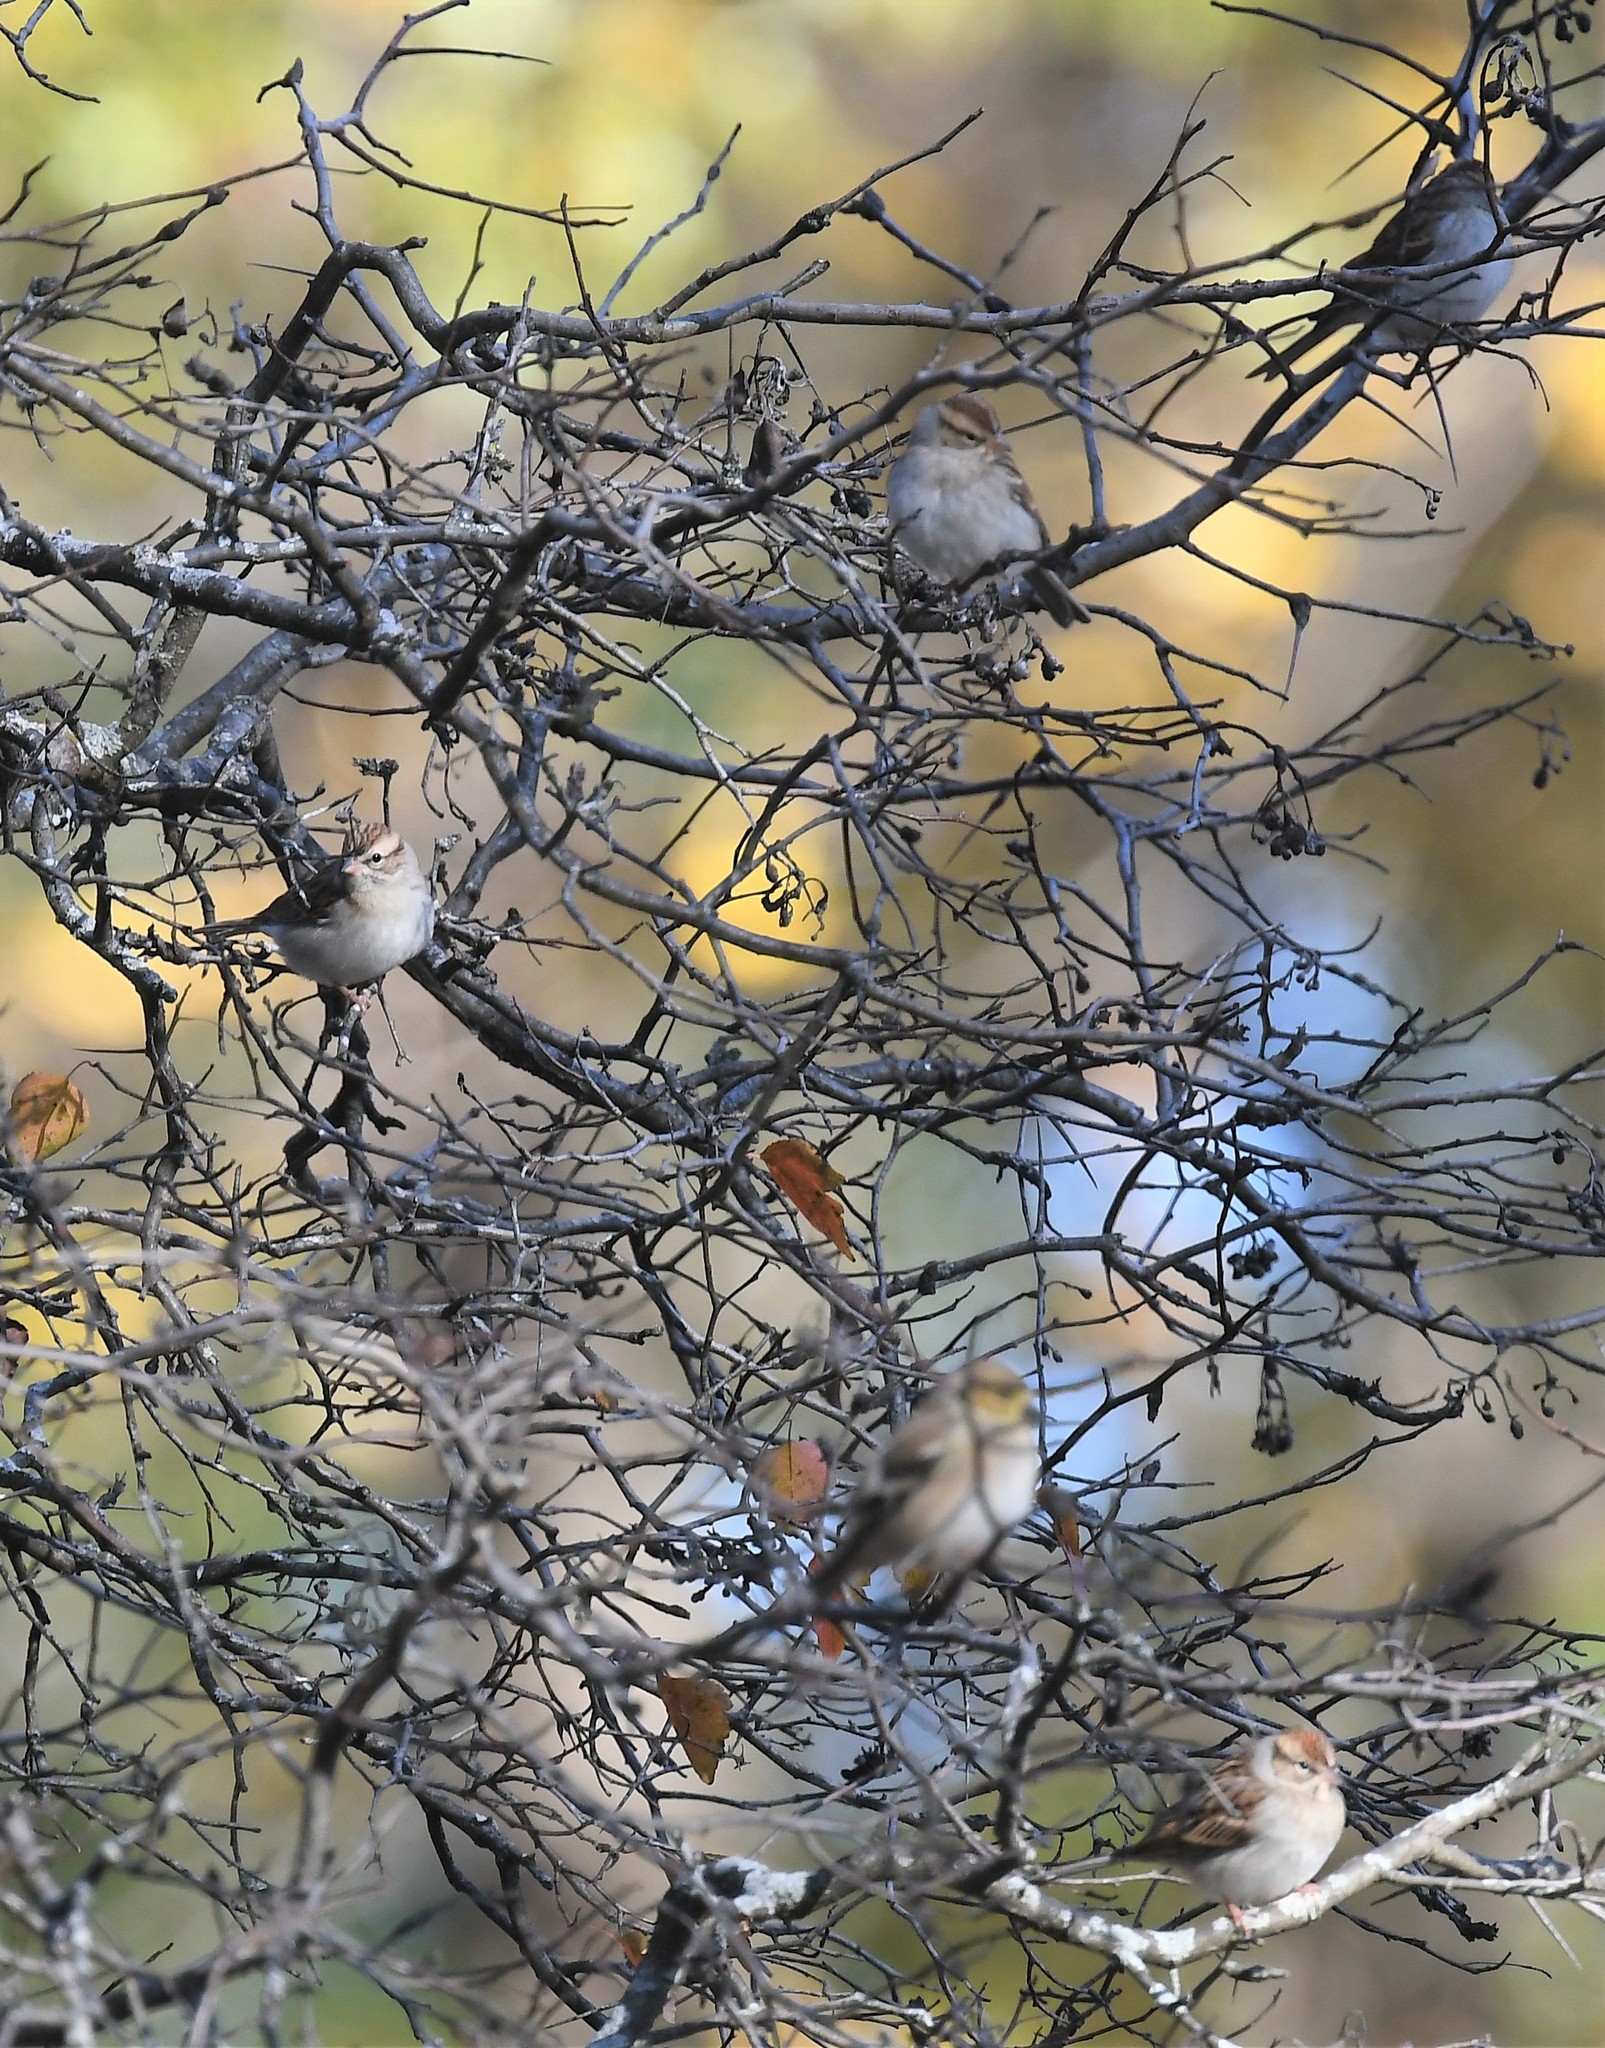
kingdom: Animalia
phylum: Chordata
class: Aves
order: Passeriformes
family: Passerellidae
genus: Spizella
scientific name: Spizella passerina
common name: Chipping sparrow
